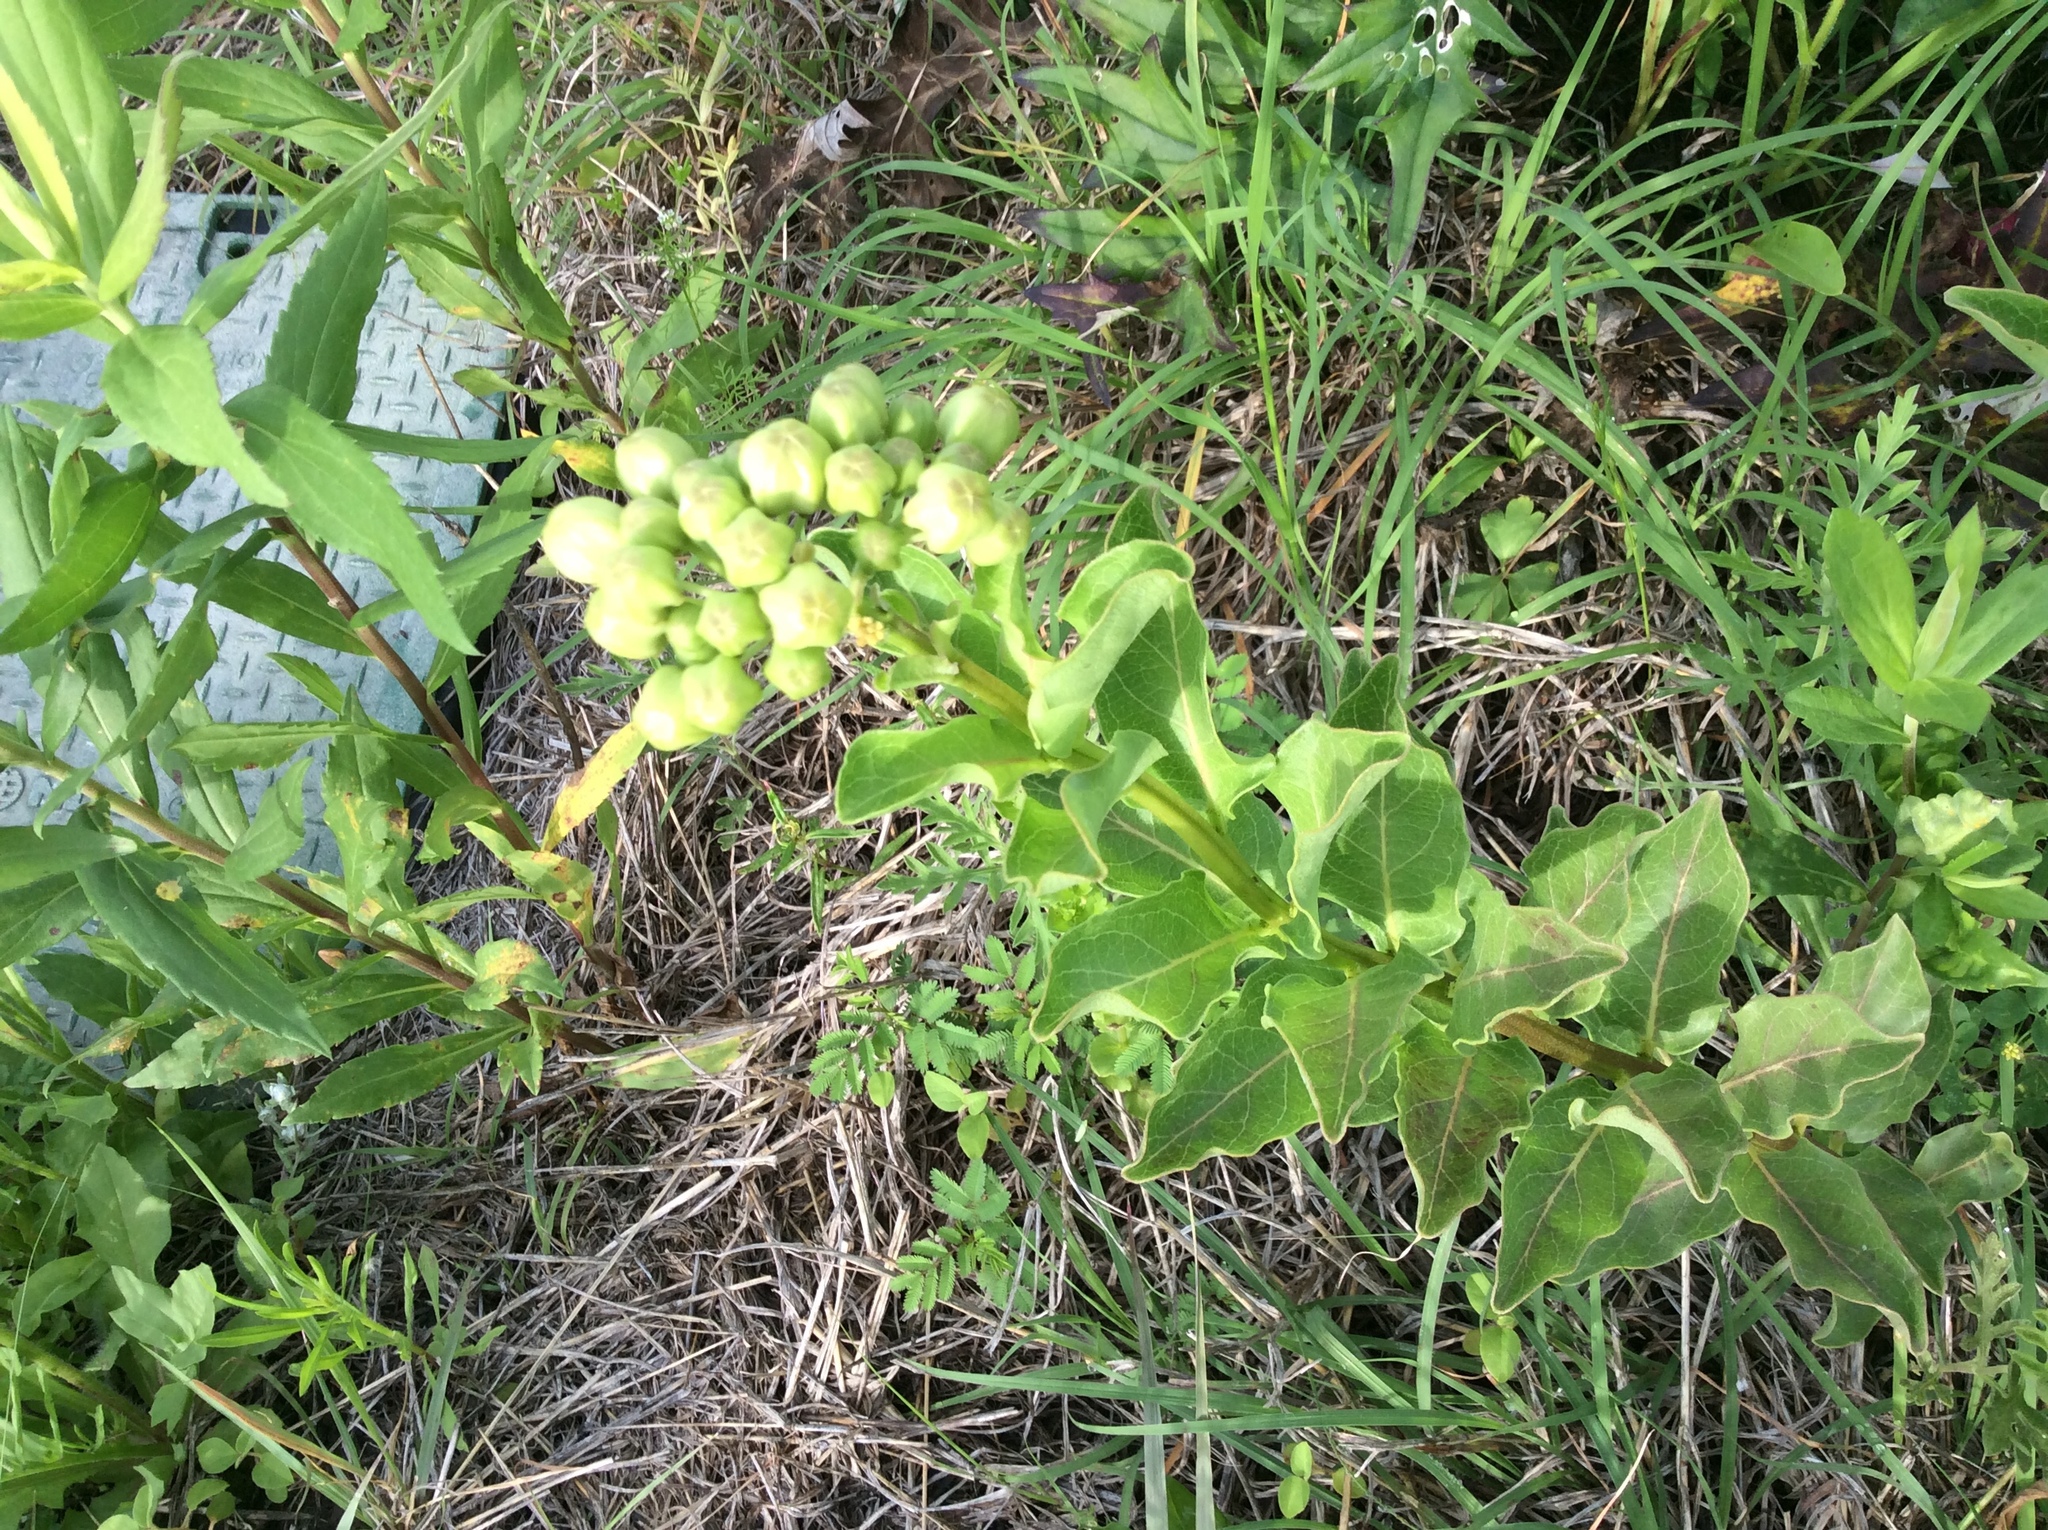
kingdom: Plantae
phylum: Tracheophyta
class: Magnoliopsida
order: Gentianales
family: Apocynaceae
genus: Asclepias
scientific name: Asclepias viridis
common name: Antelope-horns
